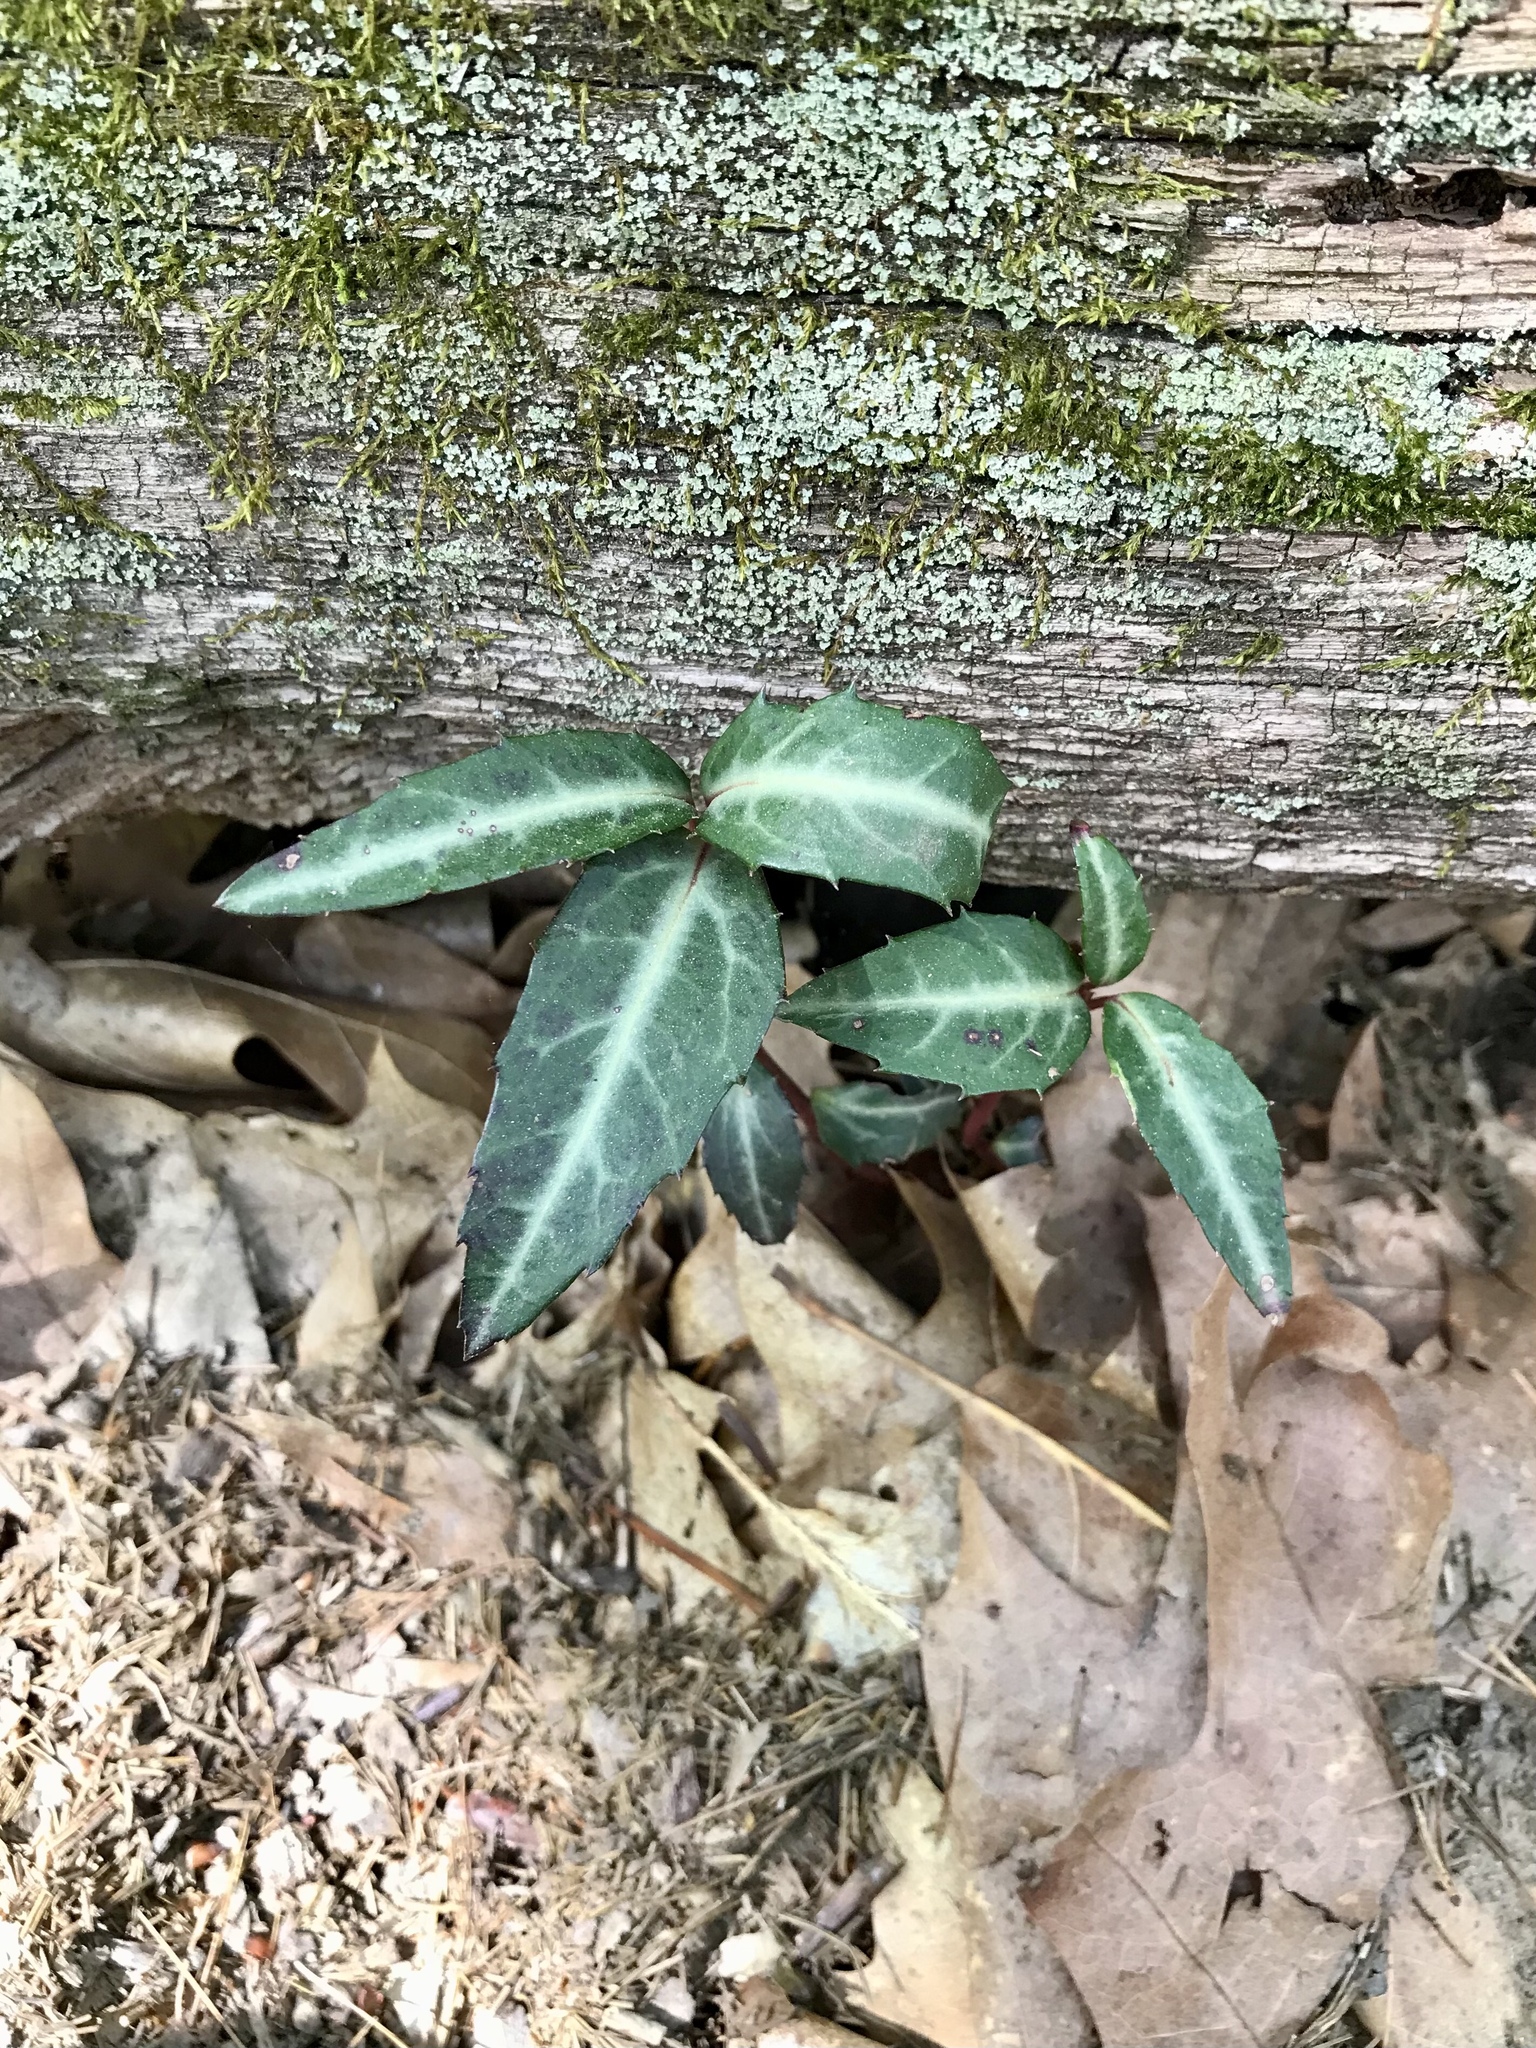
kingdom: Plantae
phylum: Tracheophyta
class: Magnoliopsida
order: Ericales
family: Ericaceae
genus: Chimaphila
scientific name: Chimaphila maculata
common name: Spotted pipsissewa
